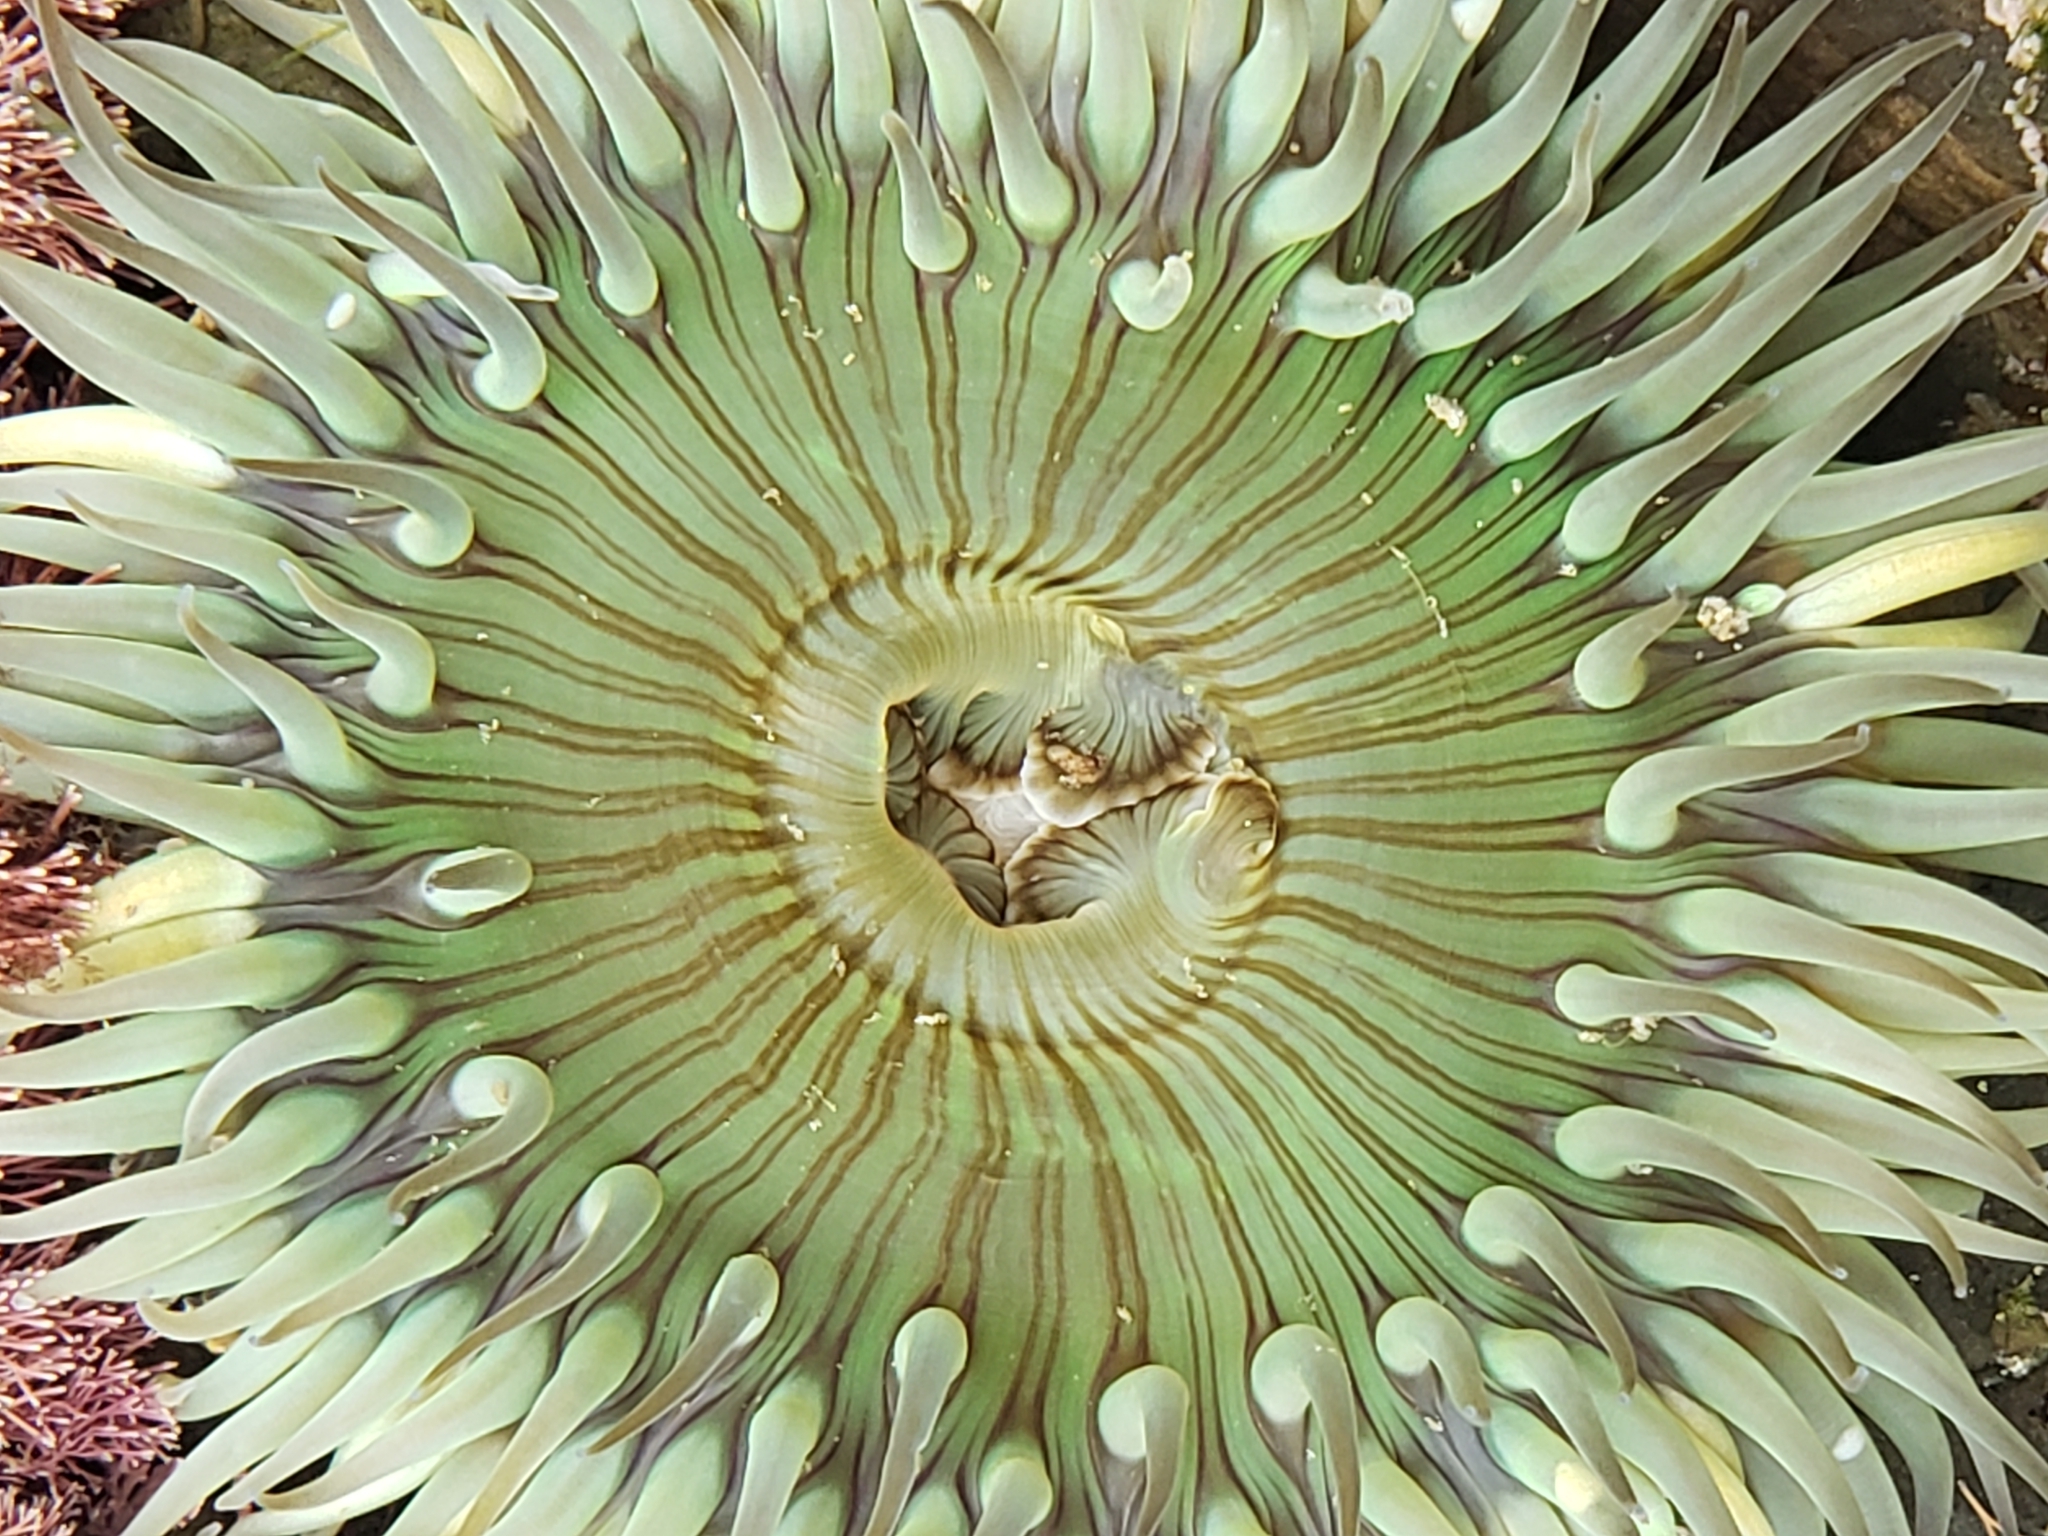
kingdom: Animalia
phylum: Cnidaria
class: Anthozoa
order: Actiniaria
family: Actiniidae
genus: Anthopleura
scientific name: Anthopleura sola
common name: Sun anemone
